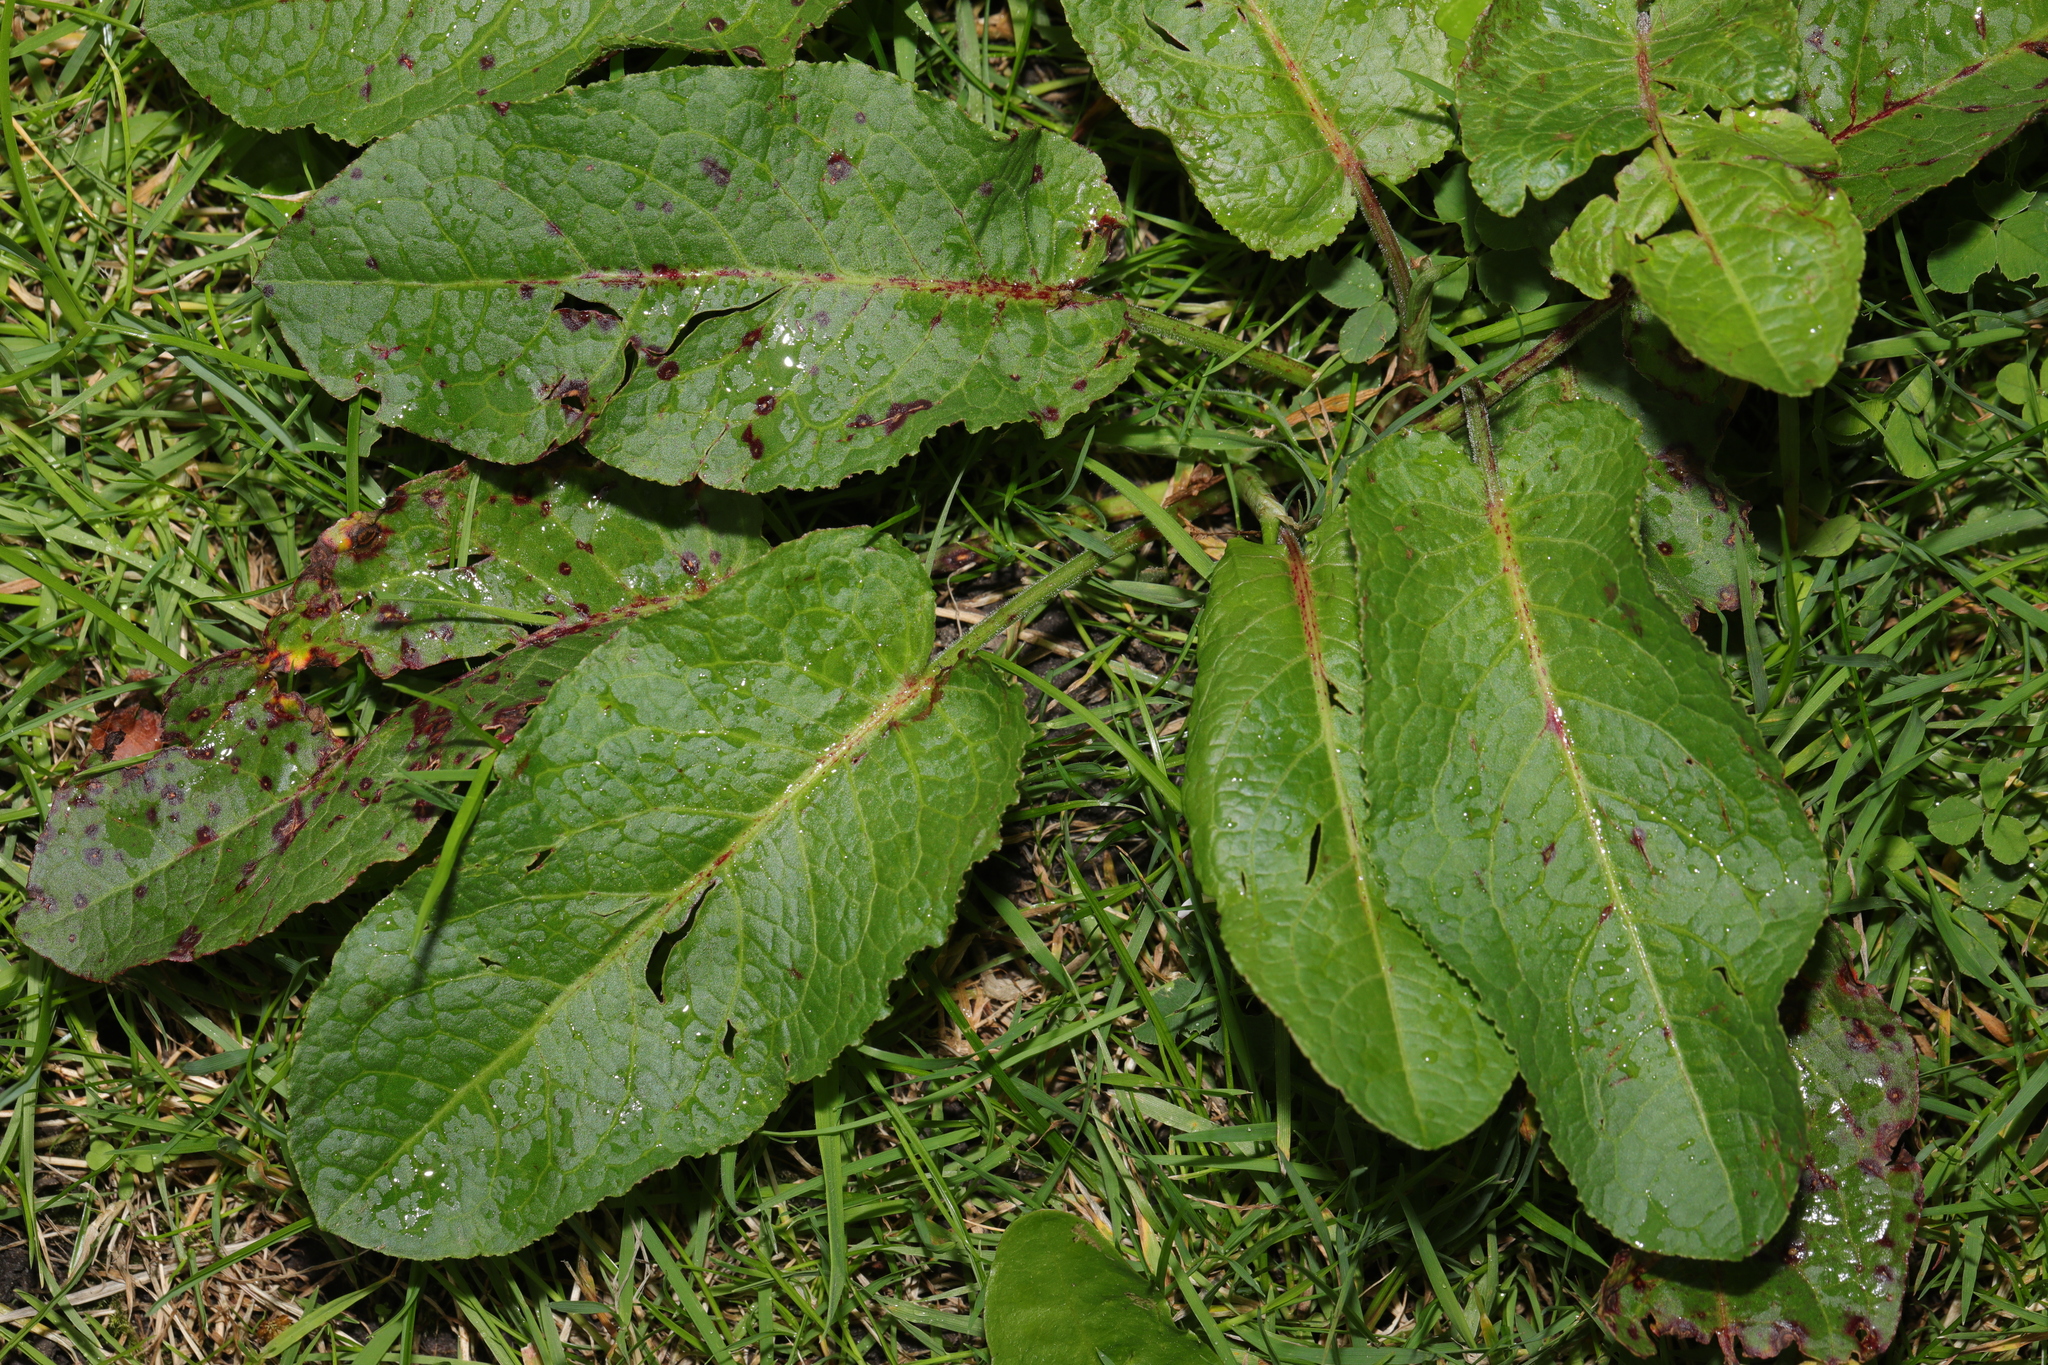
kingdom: Plantae
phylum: Tracheophyta
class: Magnoliopsida
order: Caryophyllales
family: Polygonaceae
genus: Rumex
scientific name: Rumex obtusifolius
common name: Bitter dock
